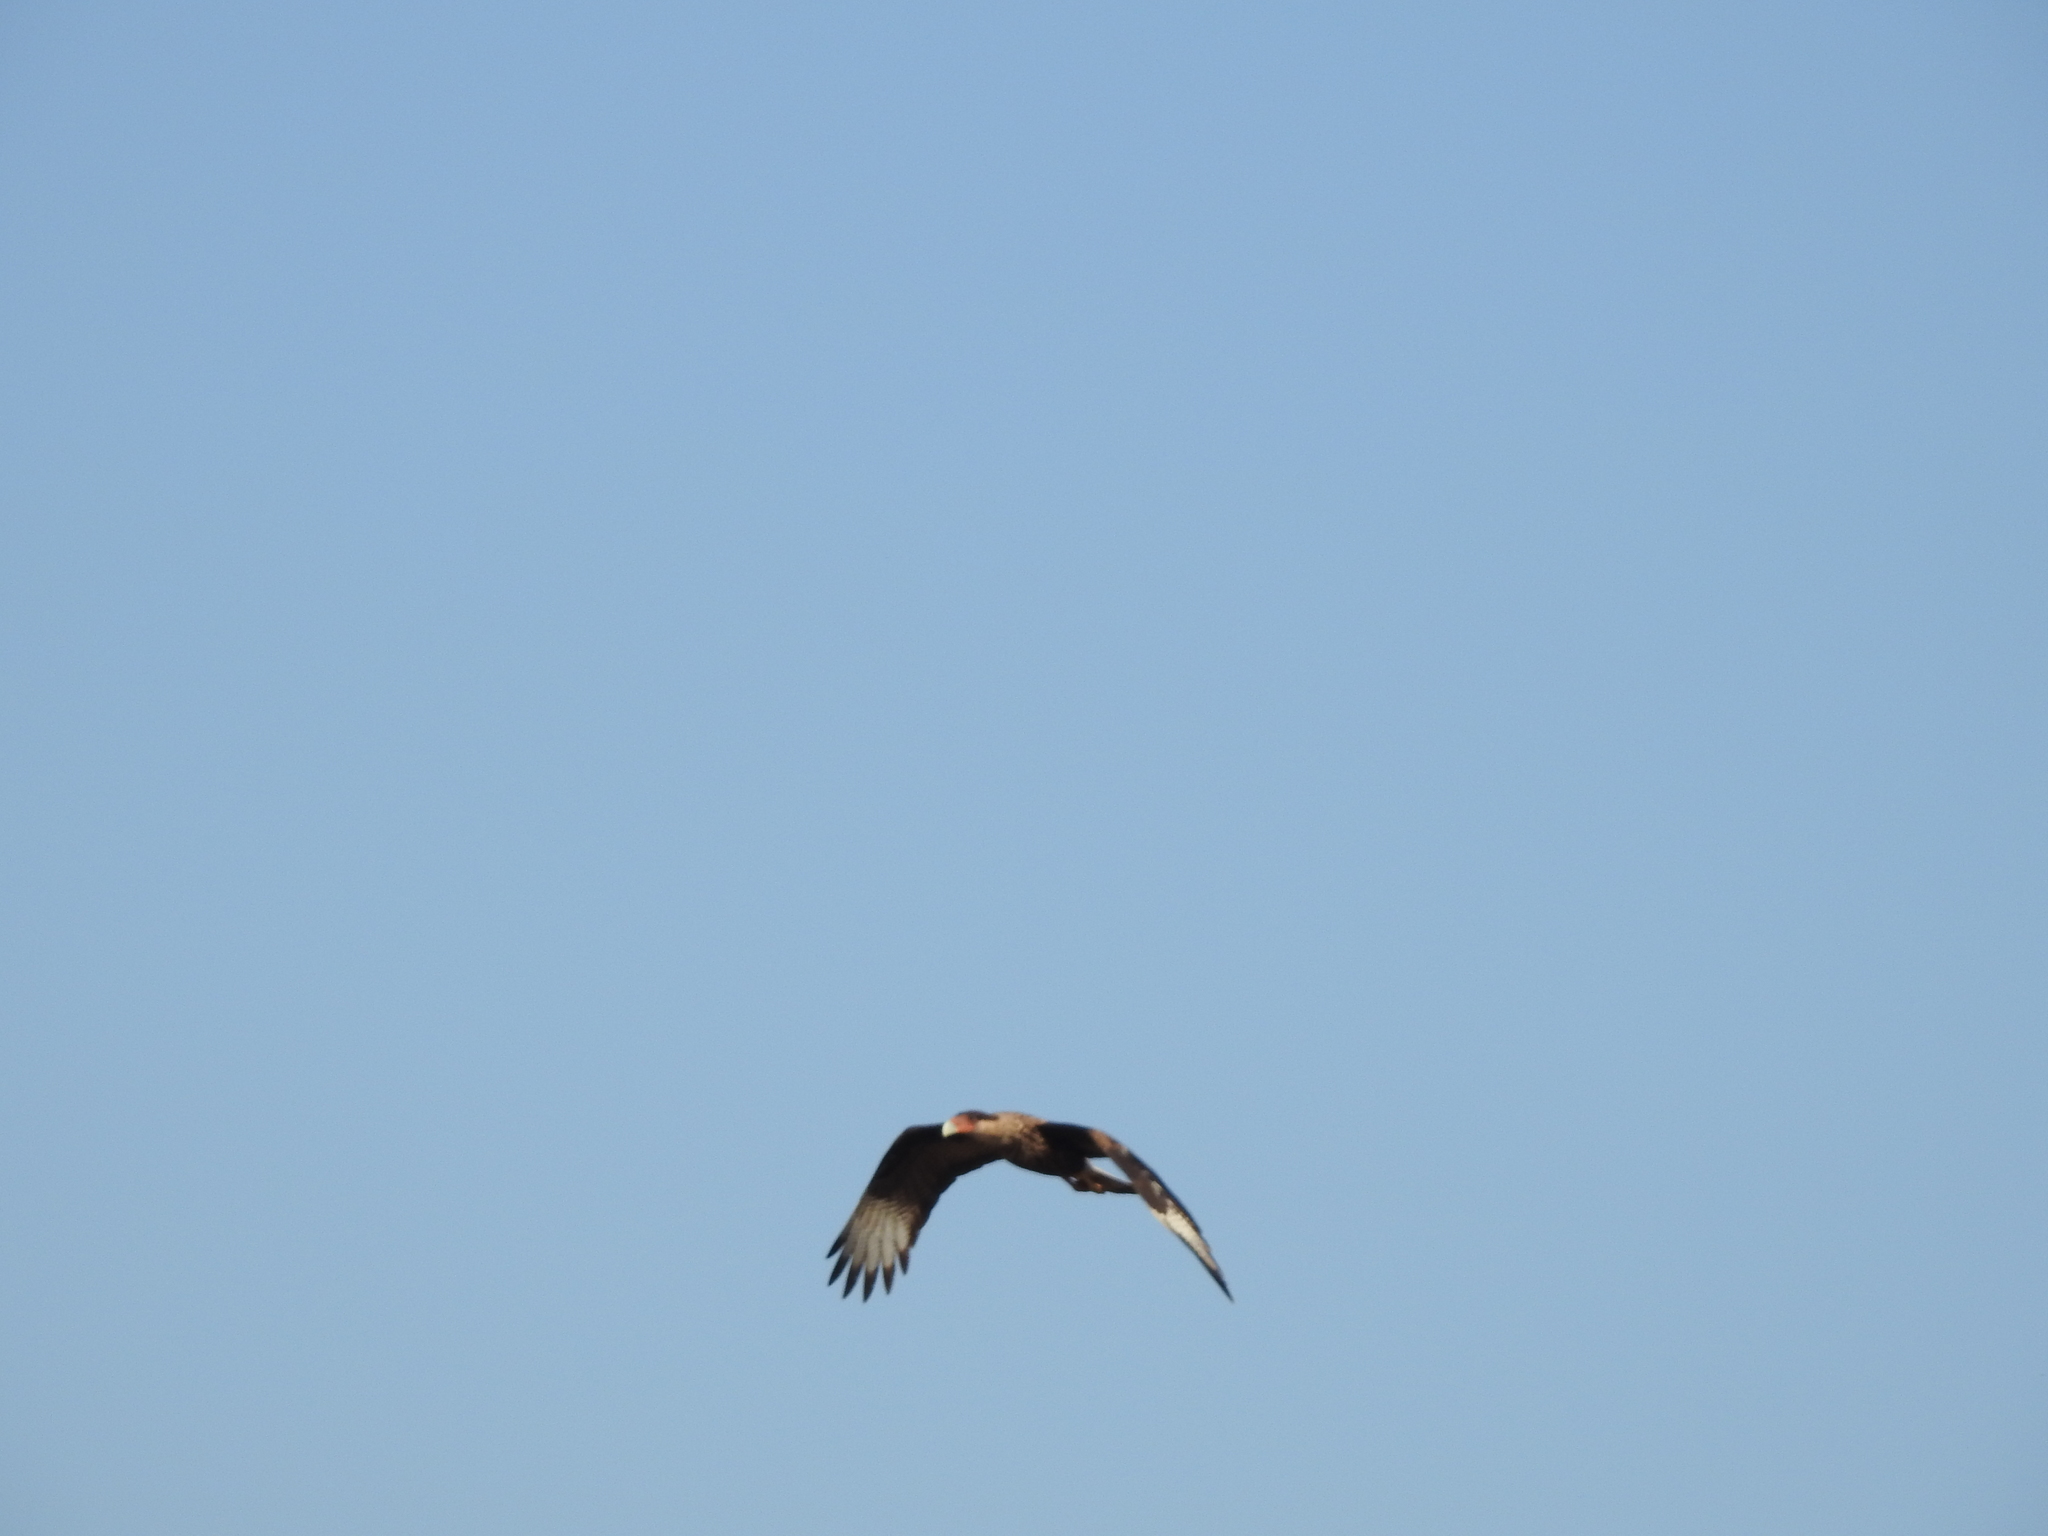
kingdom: Animalia
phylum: Chordata
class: Aves
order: Falconiformes
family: Falconidae
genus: Caracara
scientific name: Caracara plancus
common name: Southern caracara
